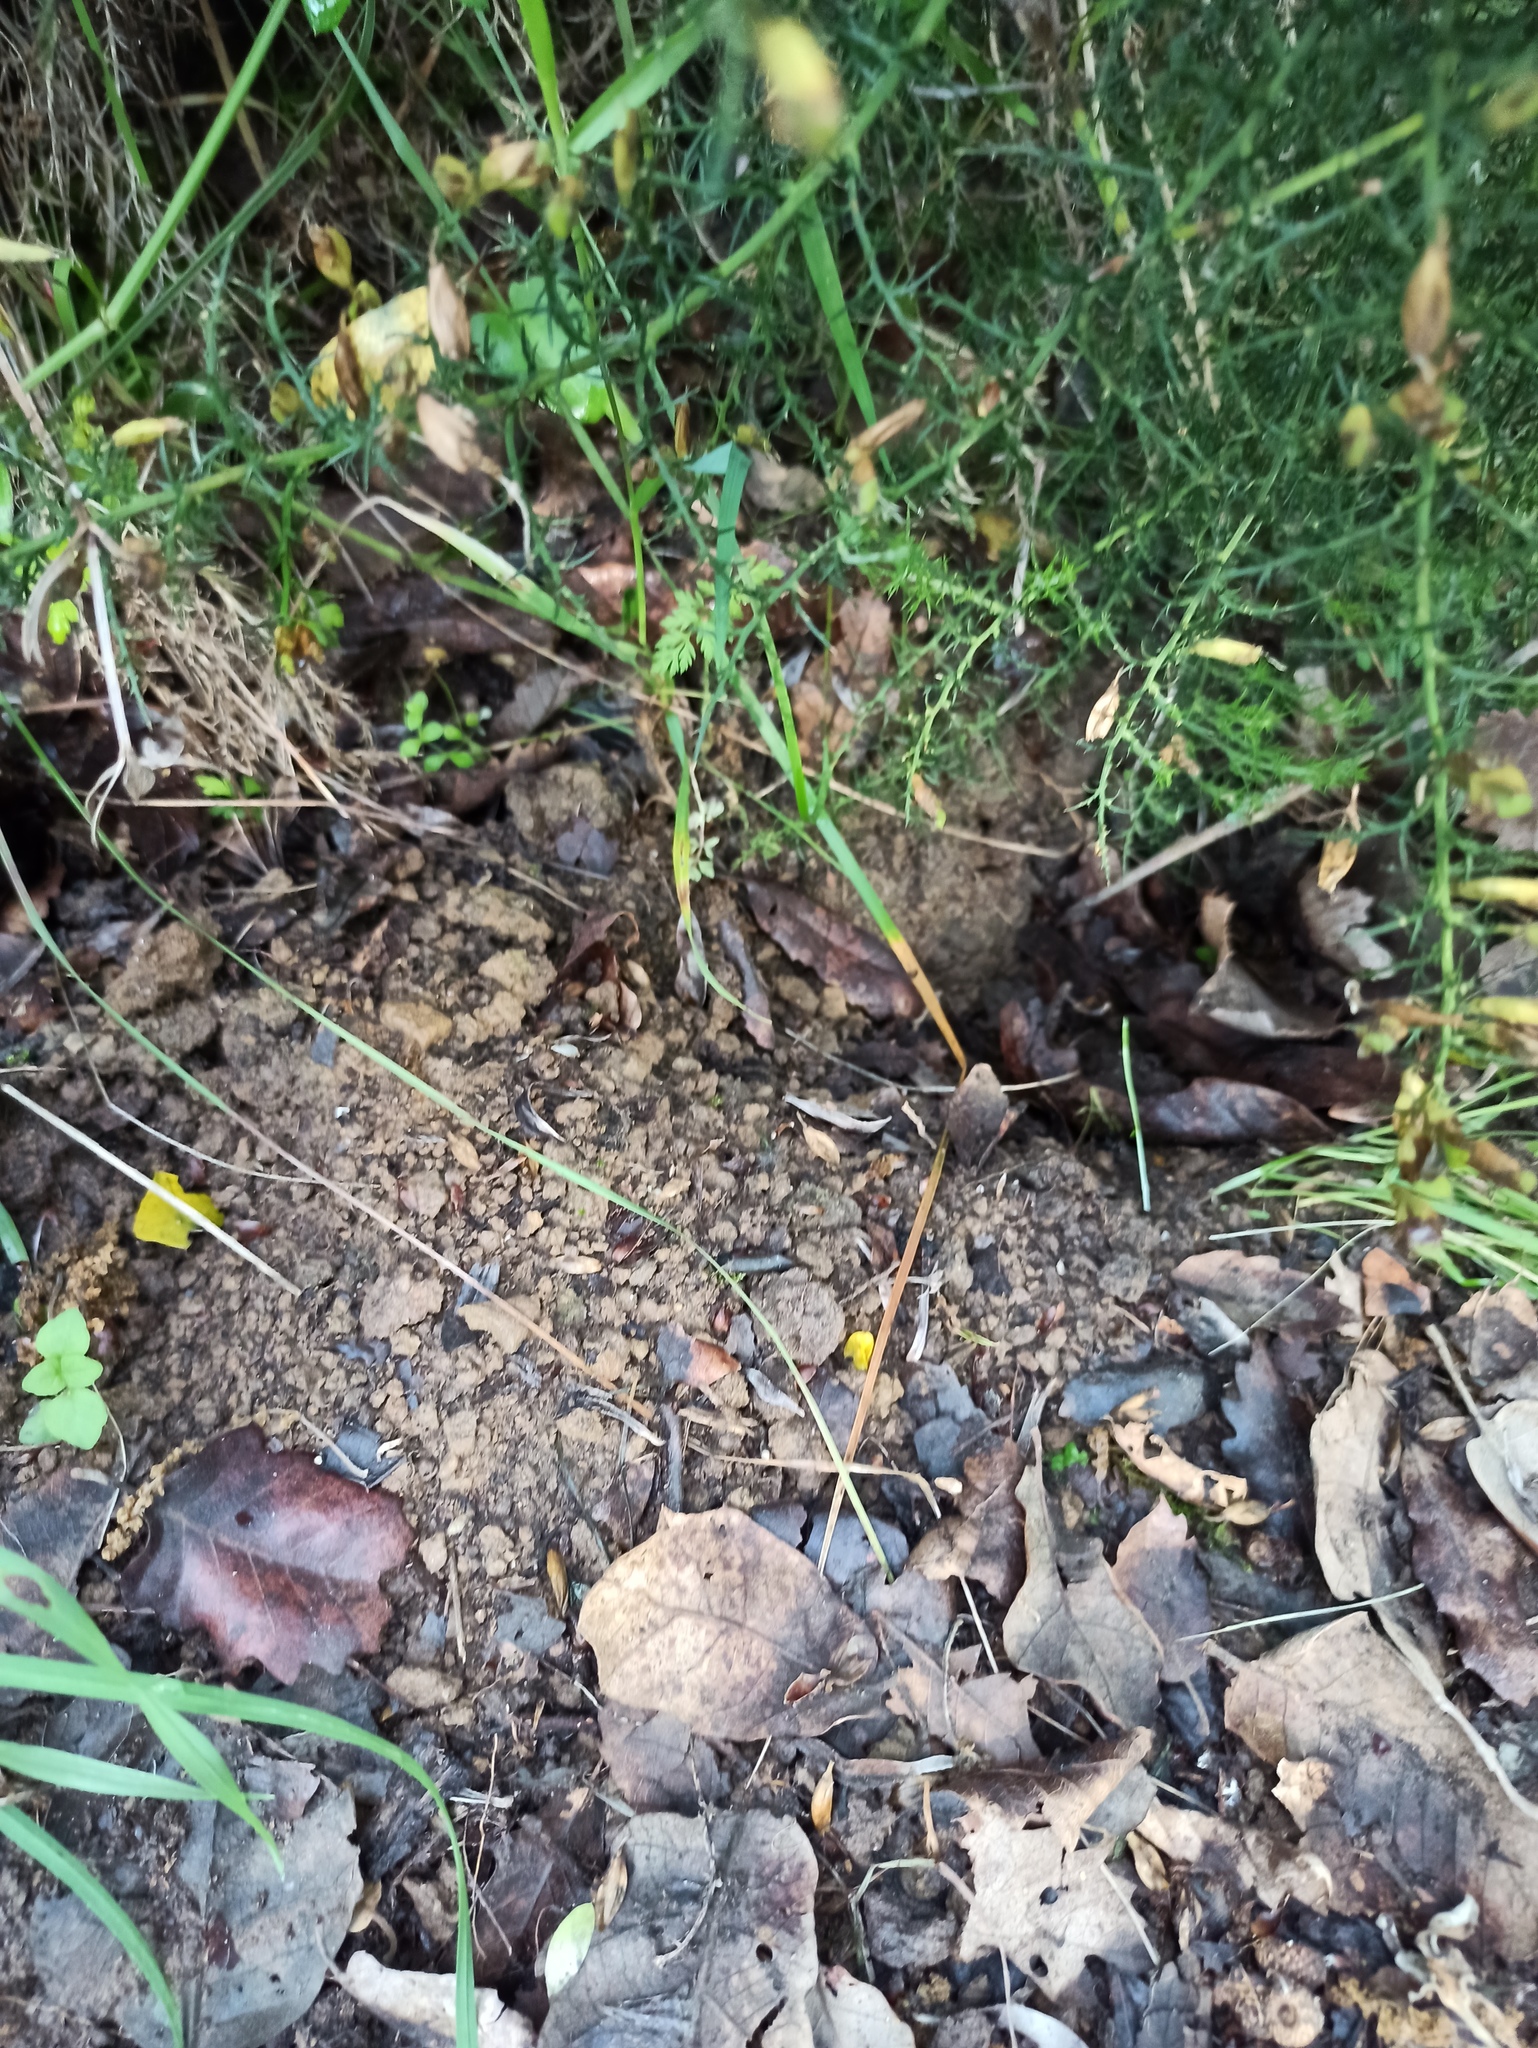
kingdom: Animalia
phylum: Chordata
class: Mammalia
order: Lagomorpha
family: Leporidae
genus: Oryctolagus
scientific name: Oryctolagus cuniculus
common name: European rabbit
